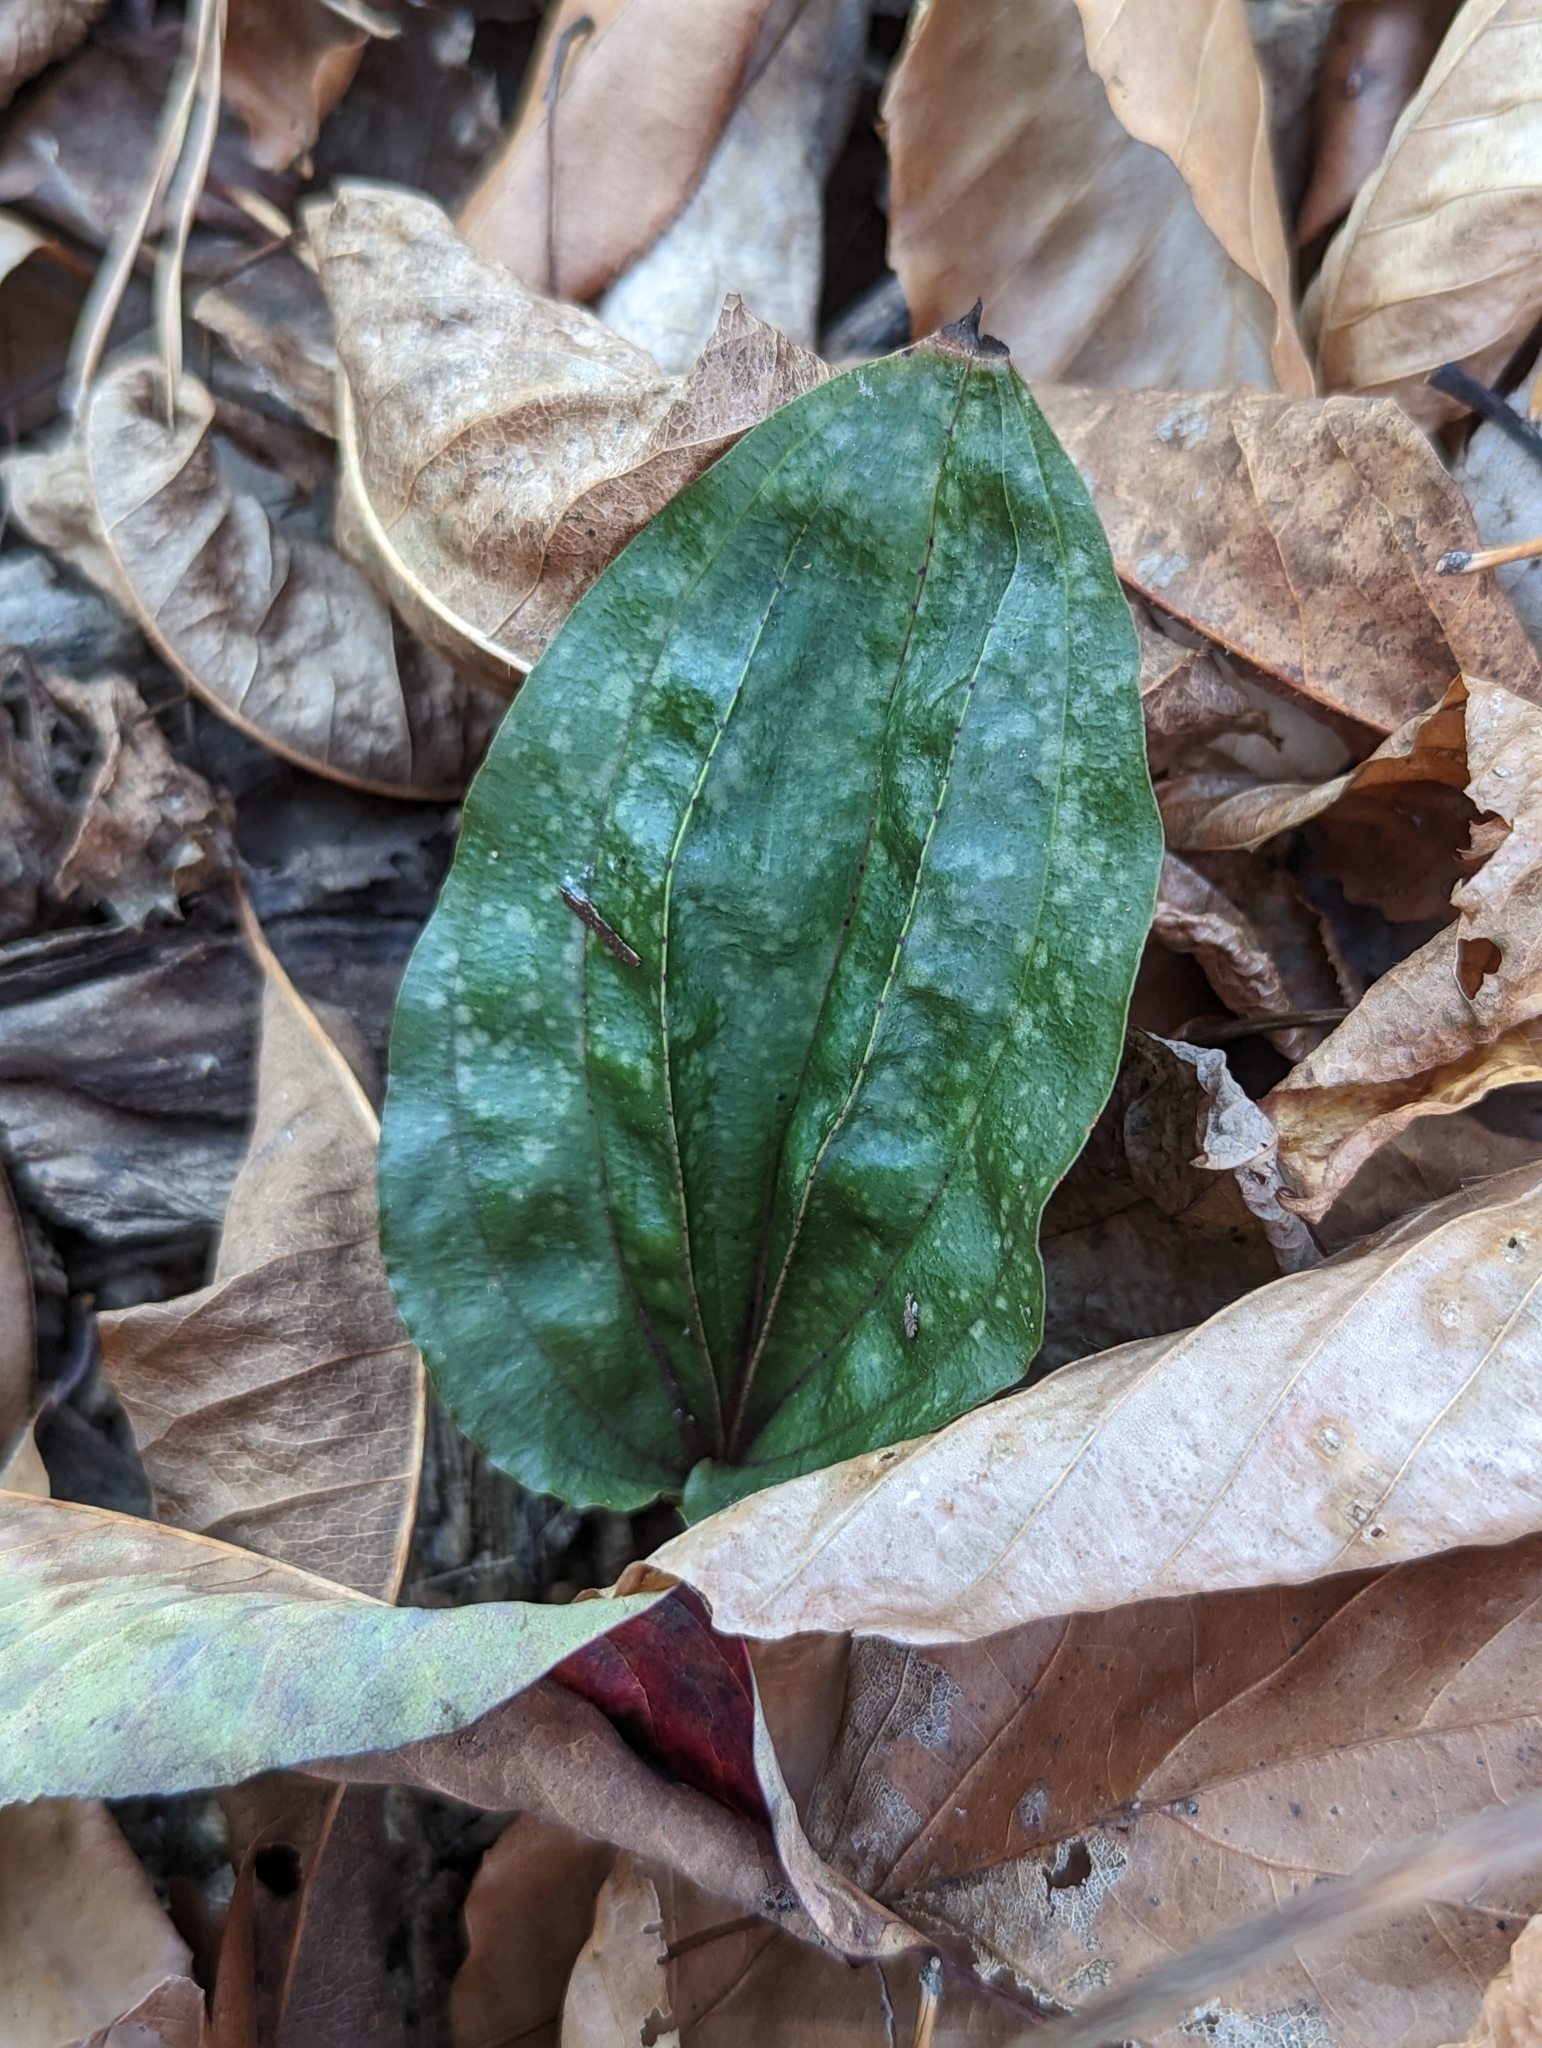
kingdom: Plantae
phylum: Tracheophyta
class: Liliopsida
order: Asparagales
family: Orchidaceae
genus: Tipularia
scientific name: Tipularia discolor
